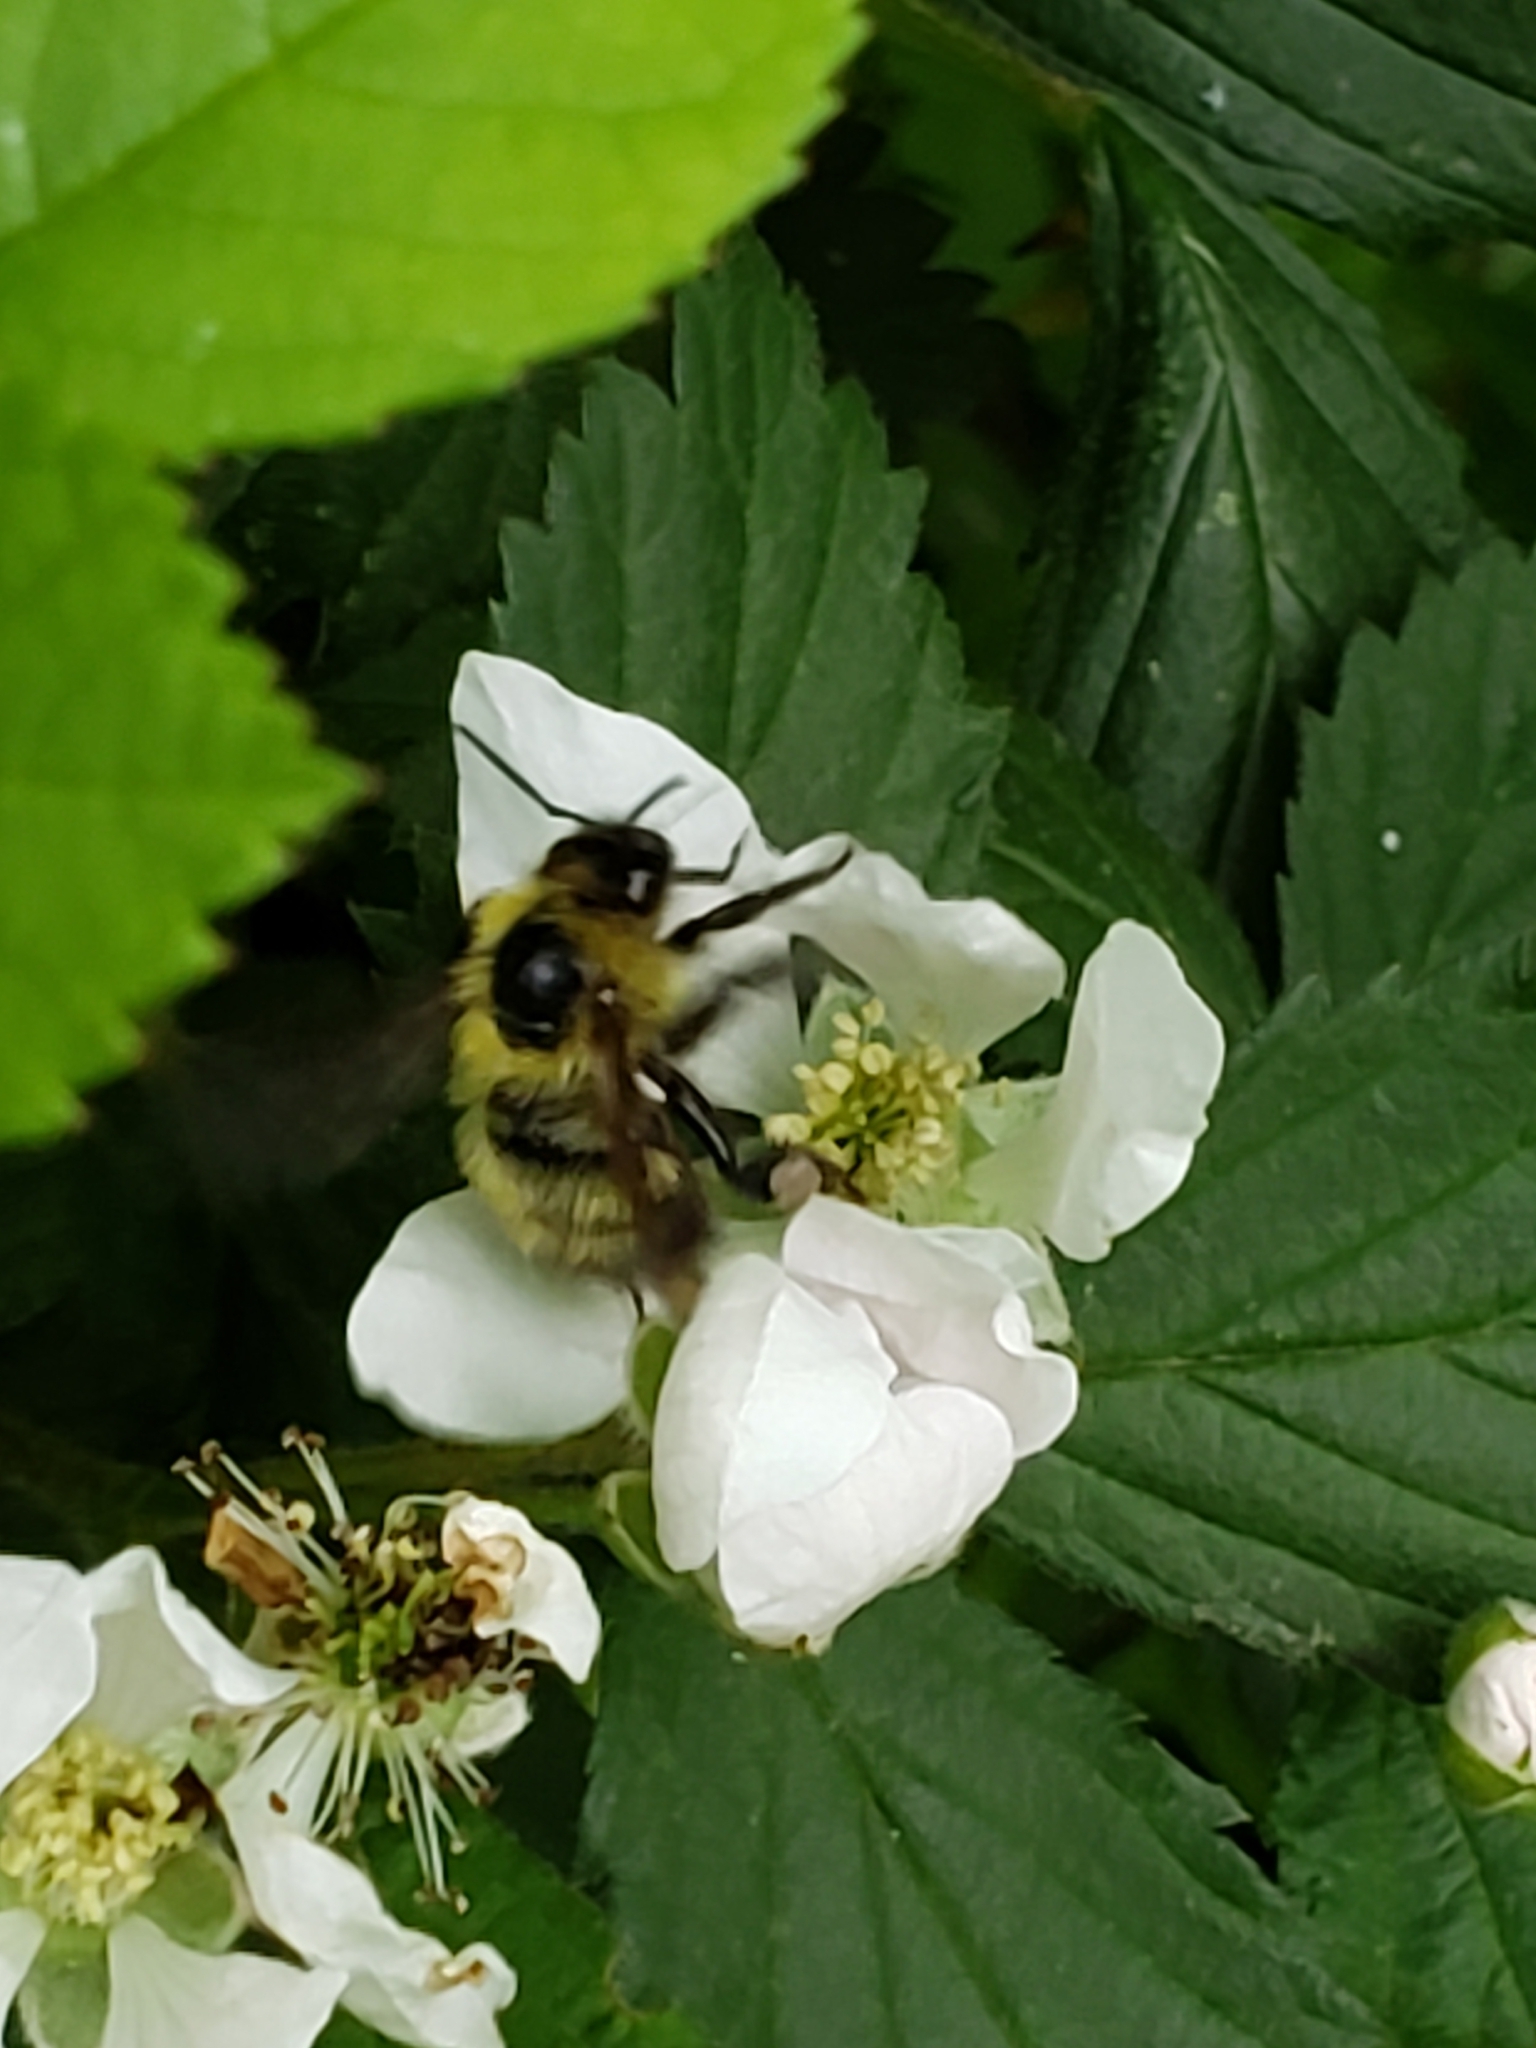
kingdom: Animalia
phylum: Arthropoda
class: Insecta
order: Hymenoptera
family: Apidae
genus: Bombus
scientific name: Bombus perplexus
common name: Confusing bumble bee
